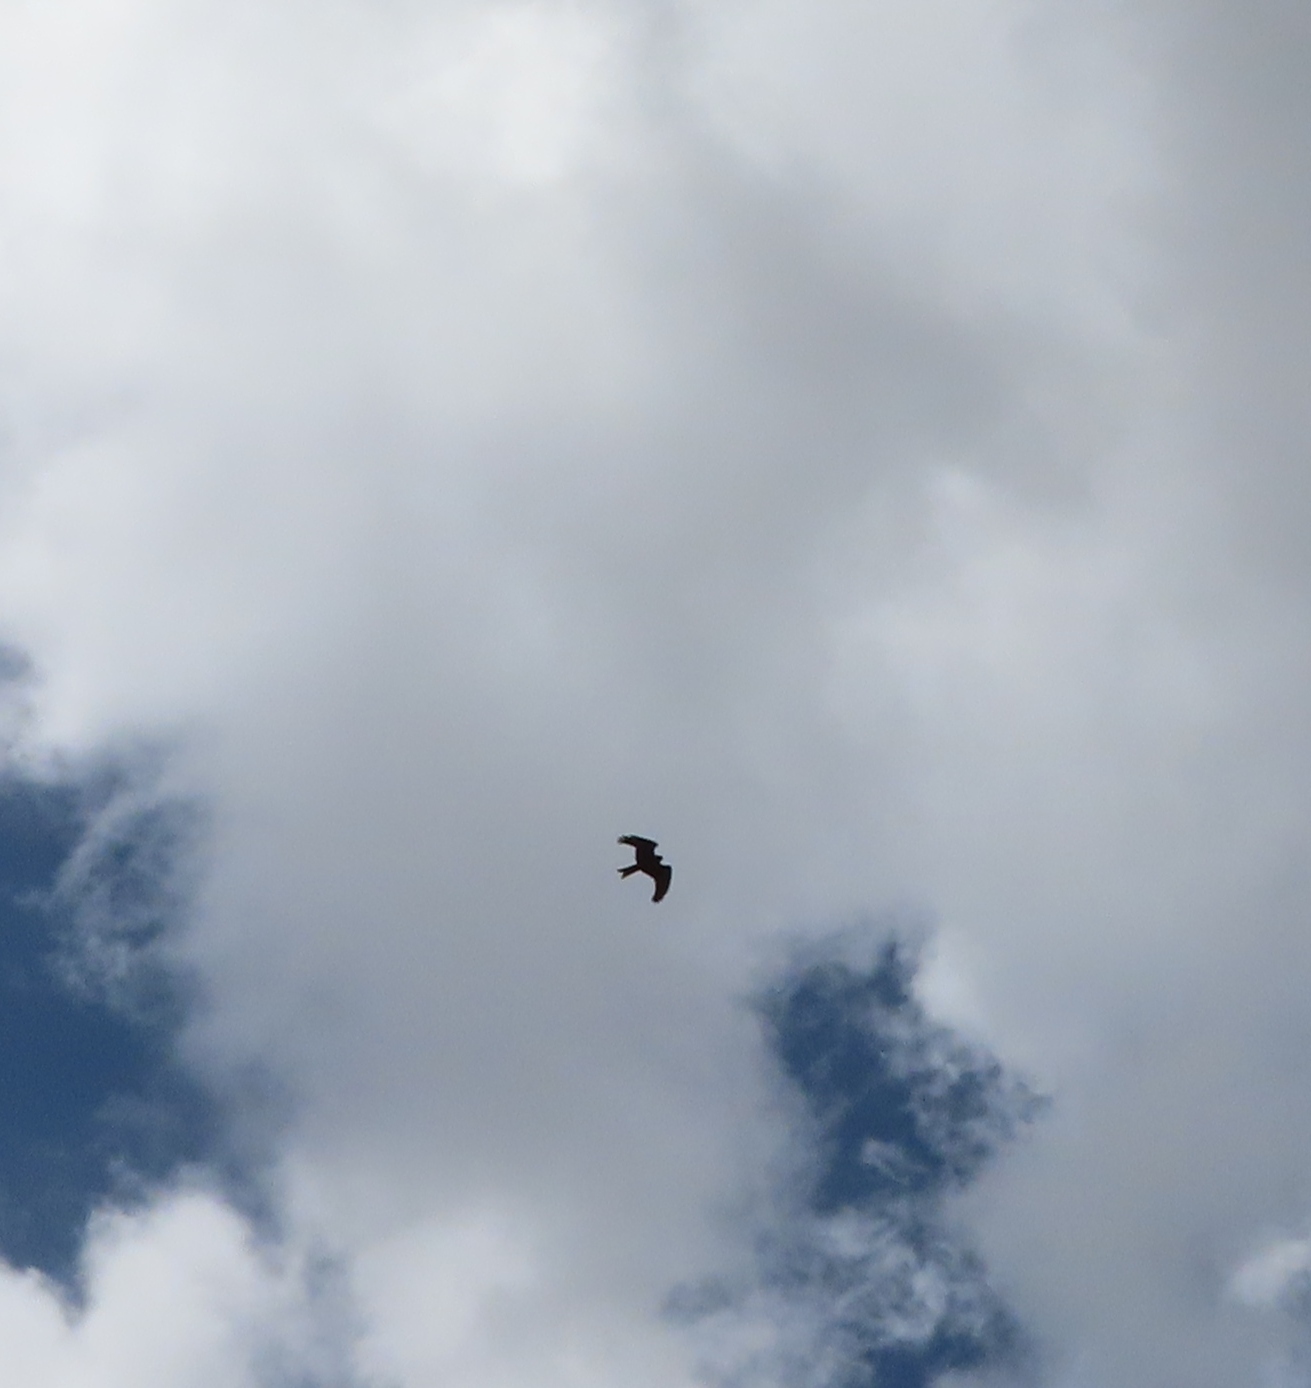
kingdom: Animalia
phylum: Chordata
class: Aves
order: Accipitriformes
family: Accipitridae
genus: Milvus
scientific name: Milvus migrans
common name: Black kite
